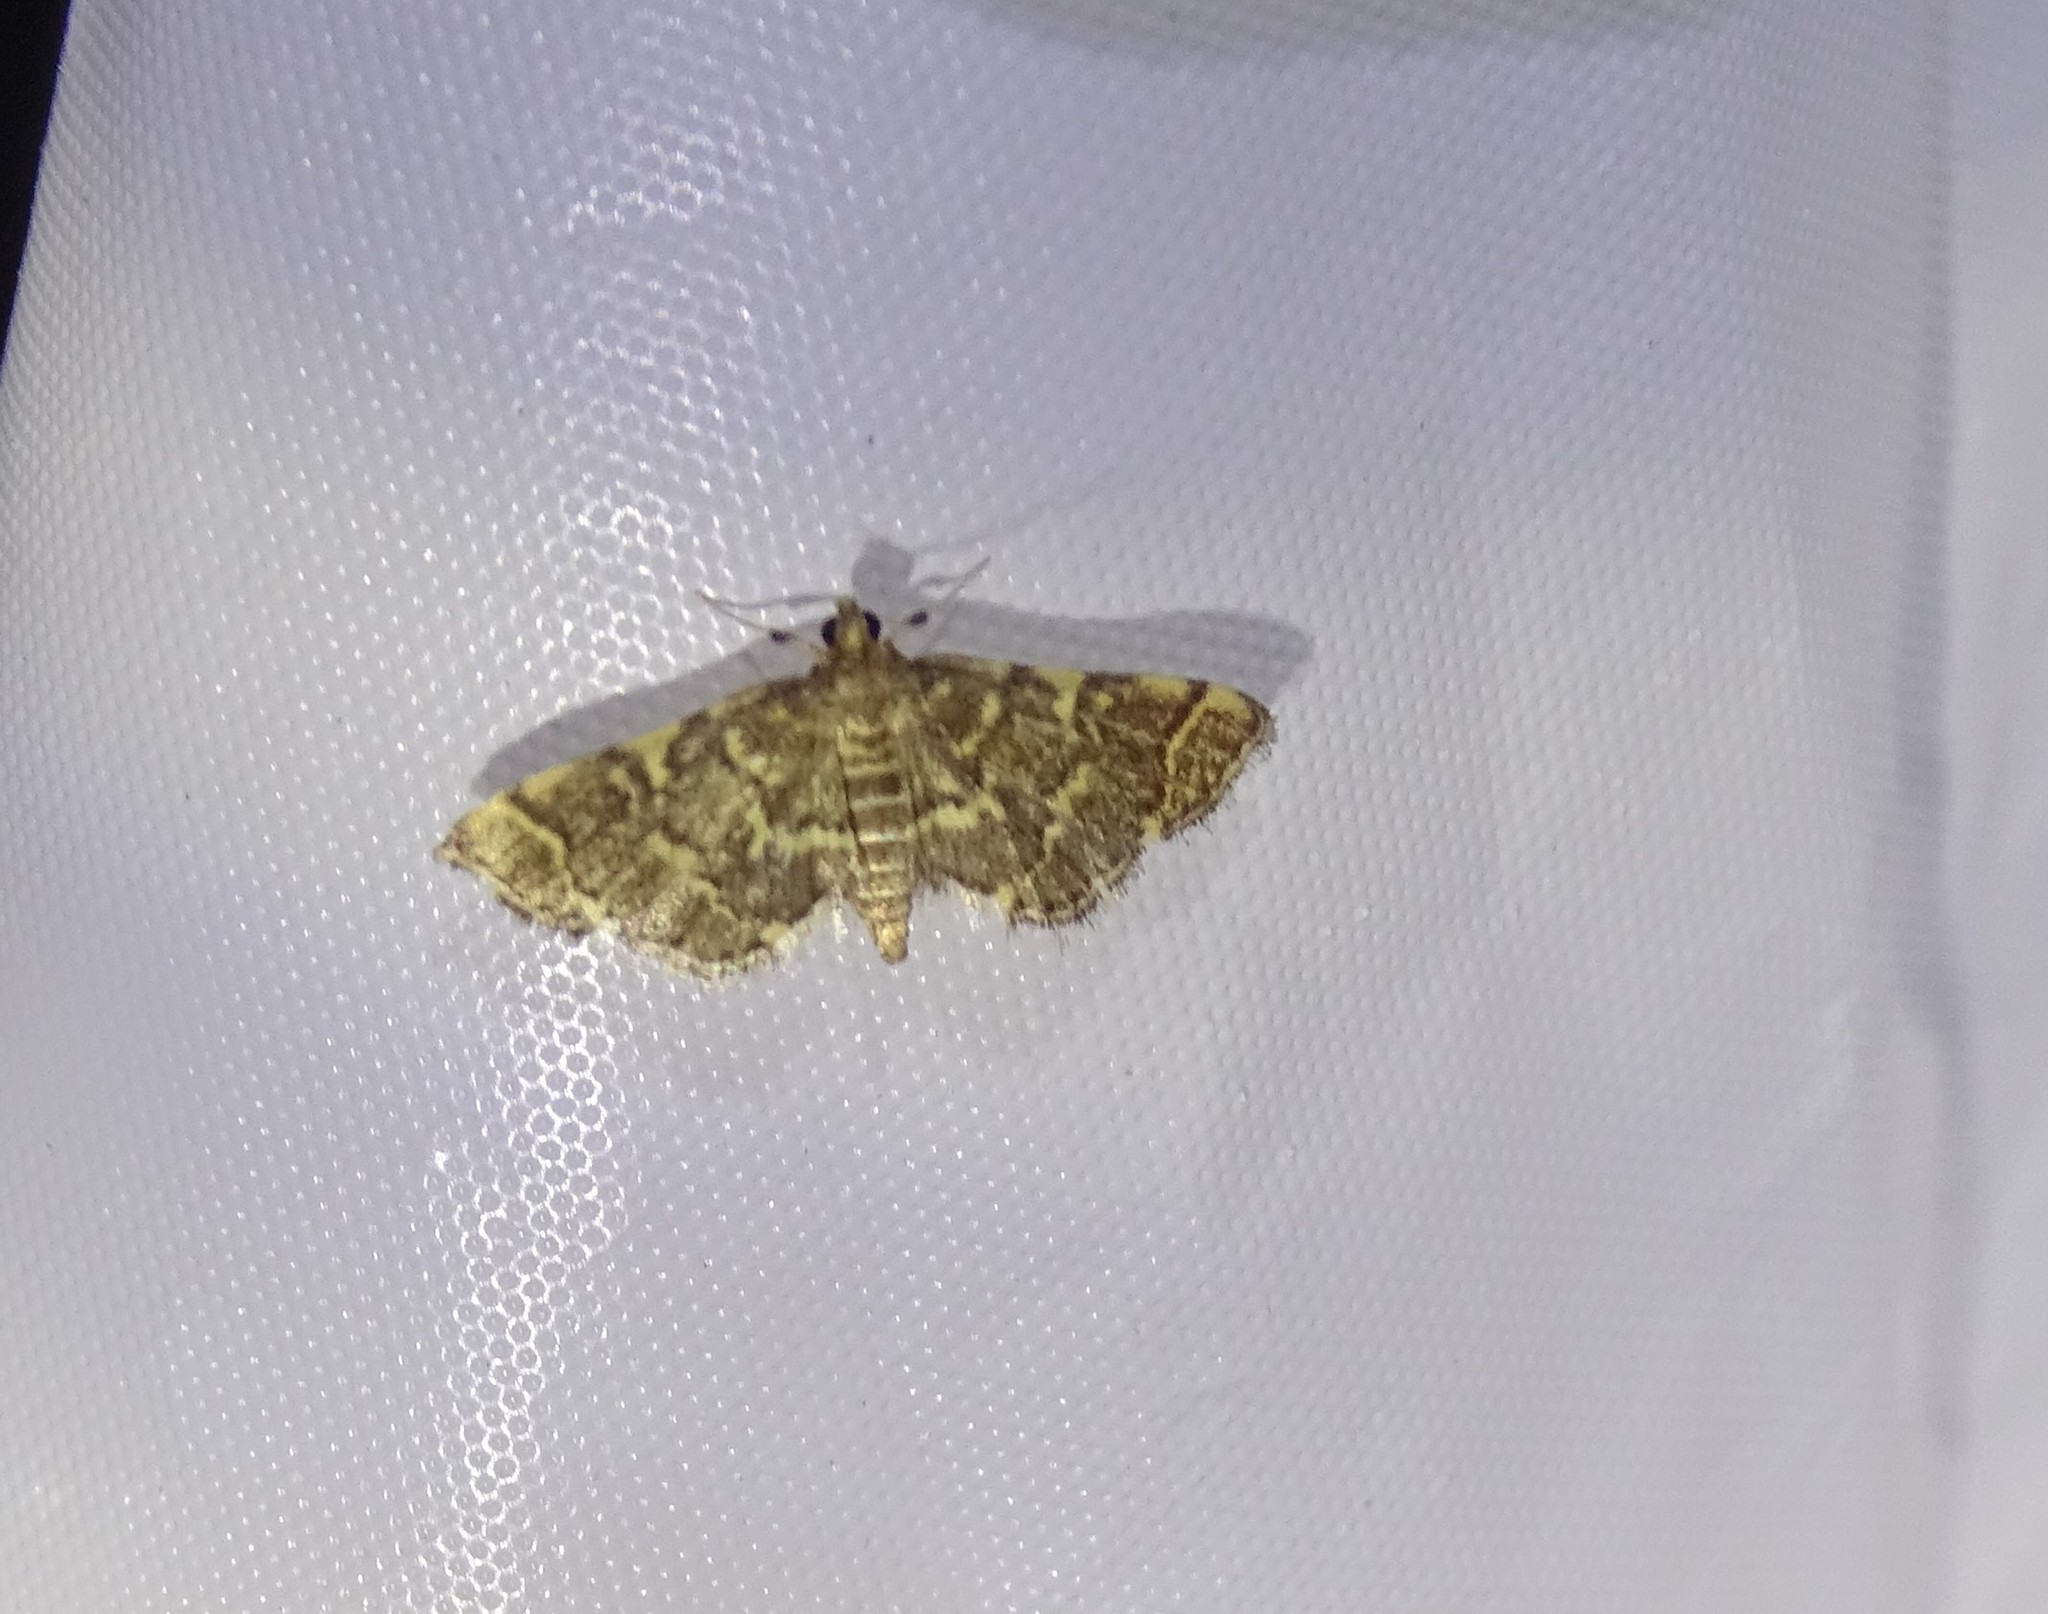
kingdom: Animalia
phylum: Arthropoda
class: Insecta
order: Lepidoptera
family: Crambidae
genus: Anageshna
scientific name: Anageshna primordialis
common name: Yellow-spotted webworm moth
